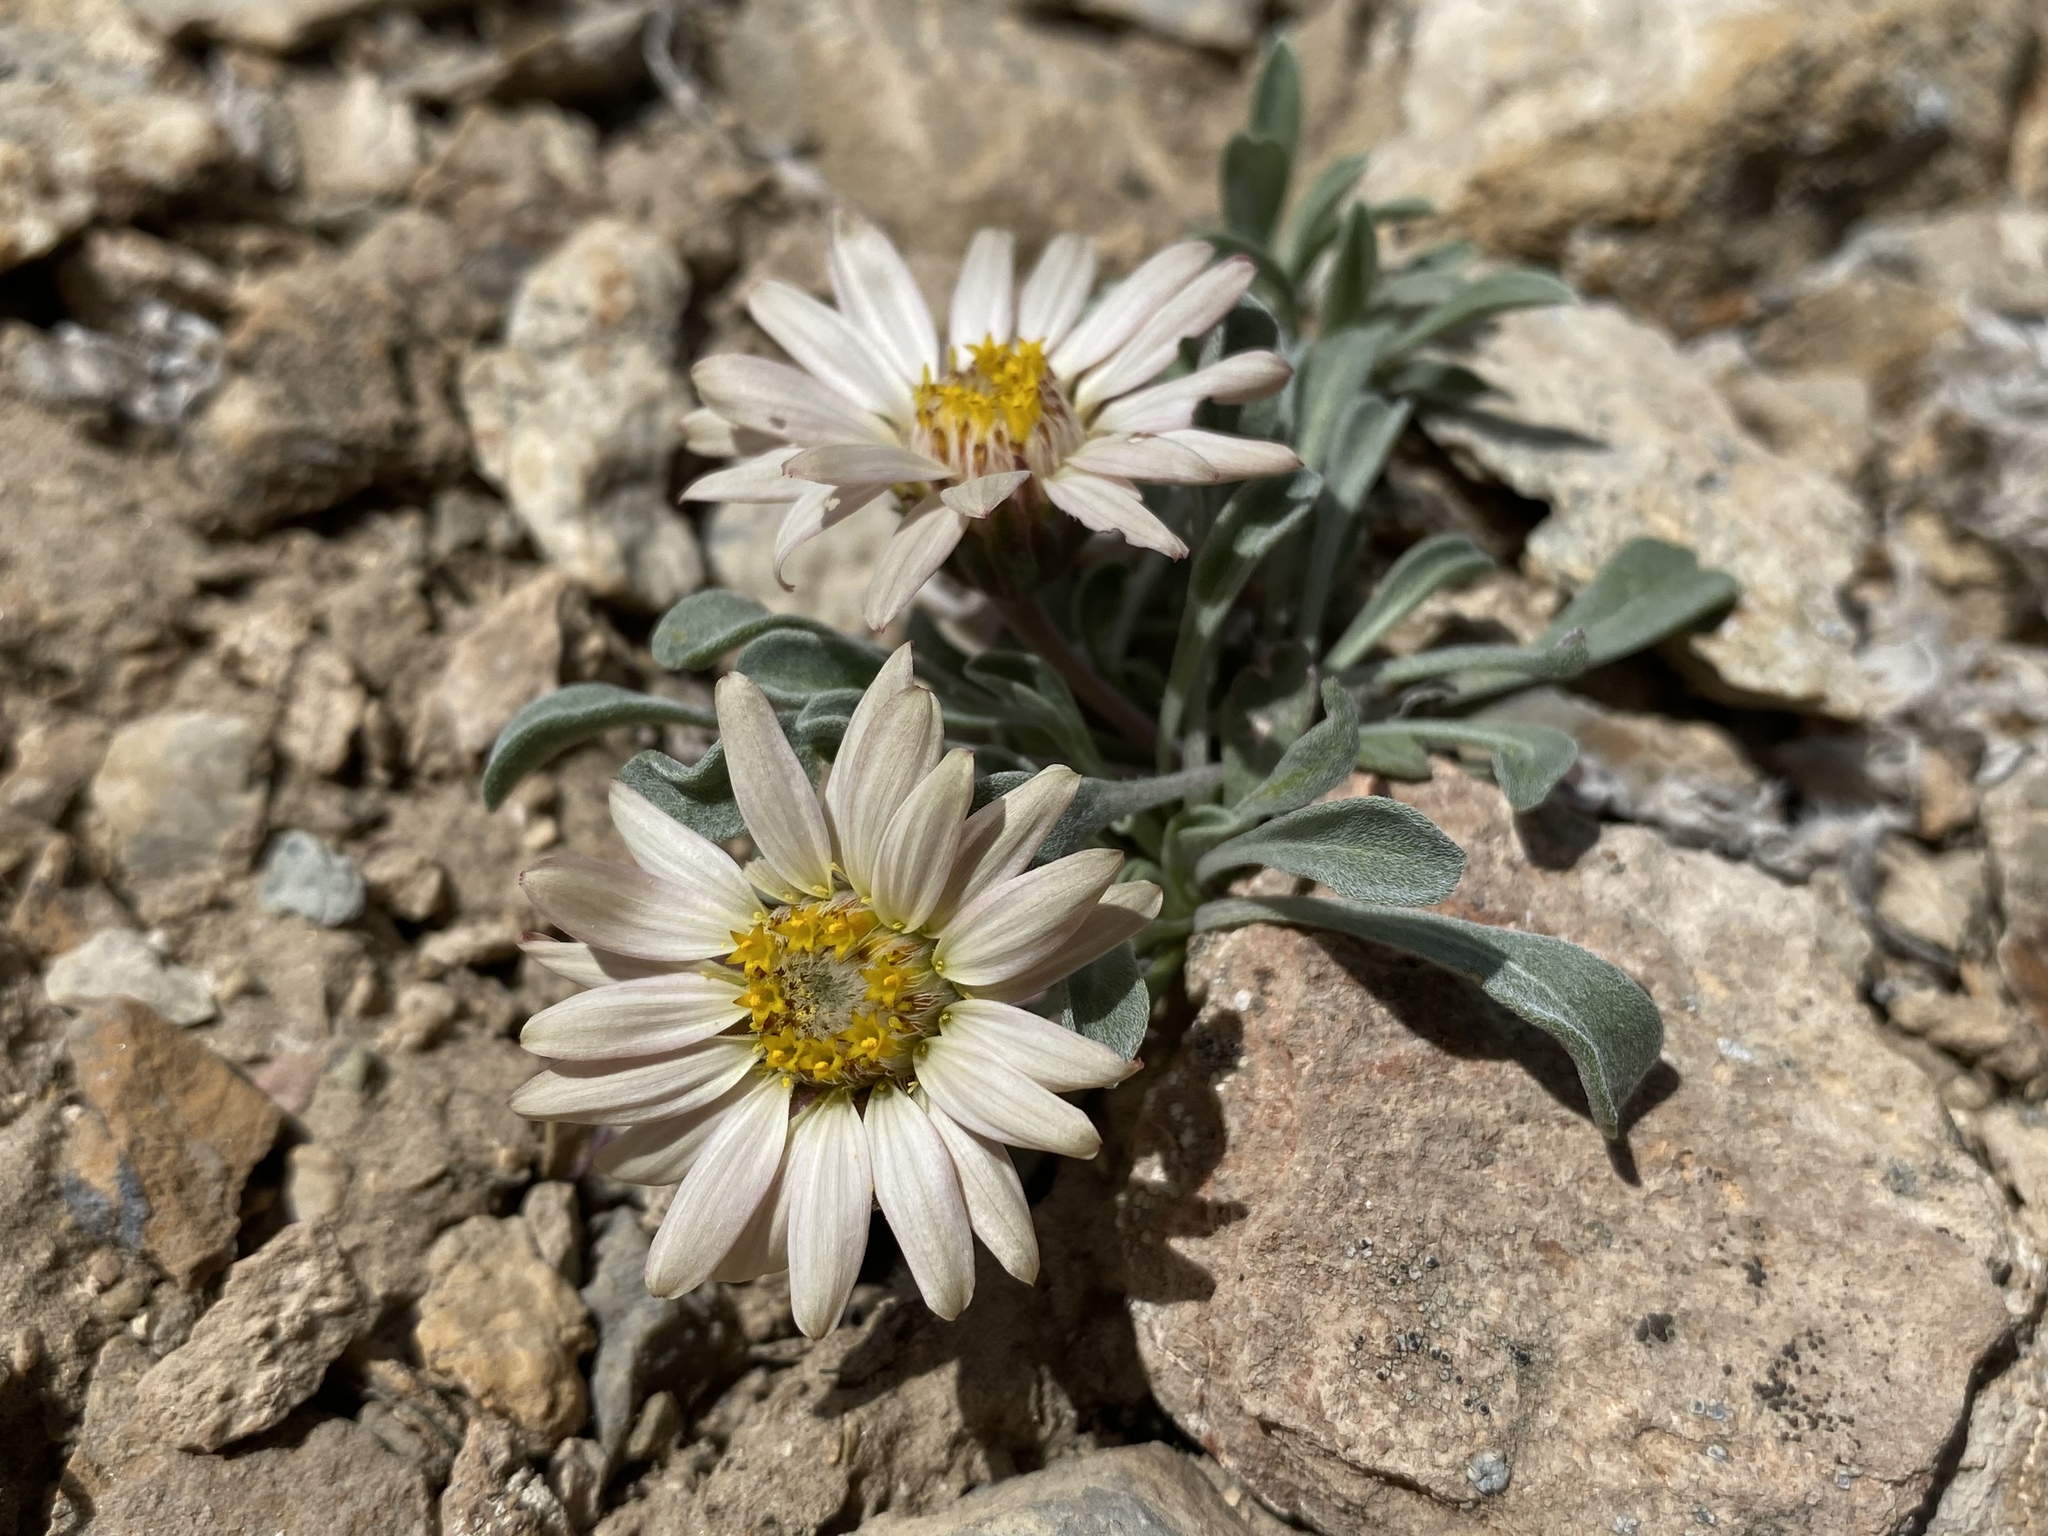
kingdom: Plantae
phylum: Tracheophyta
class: Magnoliopsida
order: Asterales
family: Asteraceae
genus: Townsendia
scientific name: Townsendia scapigera
